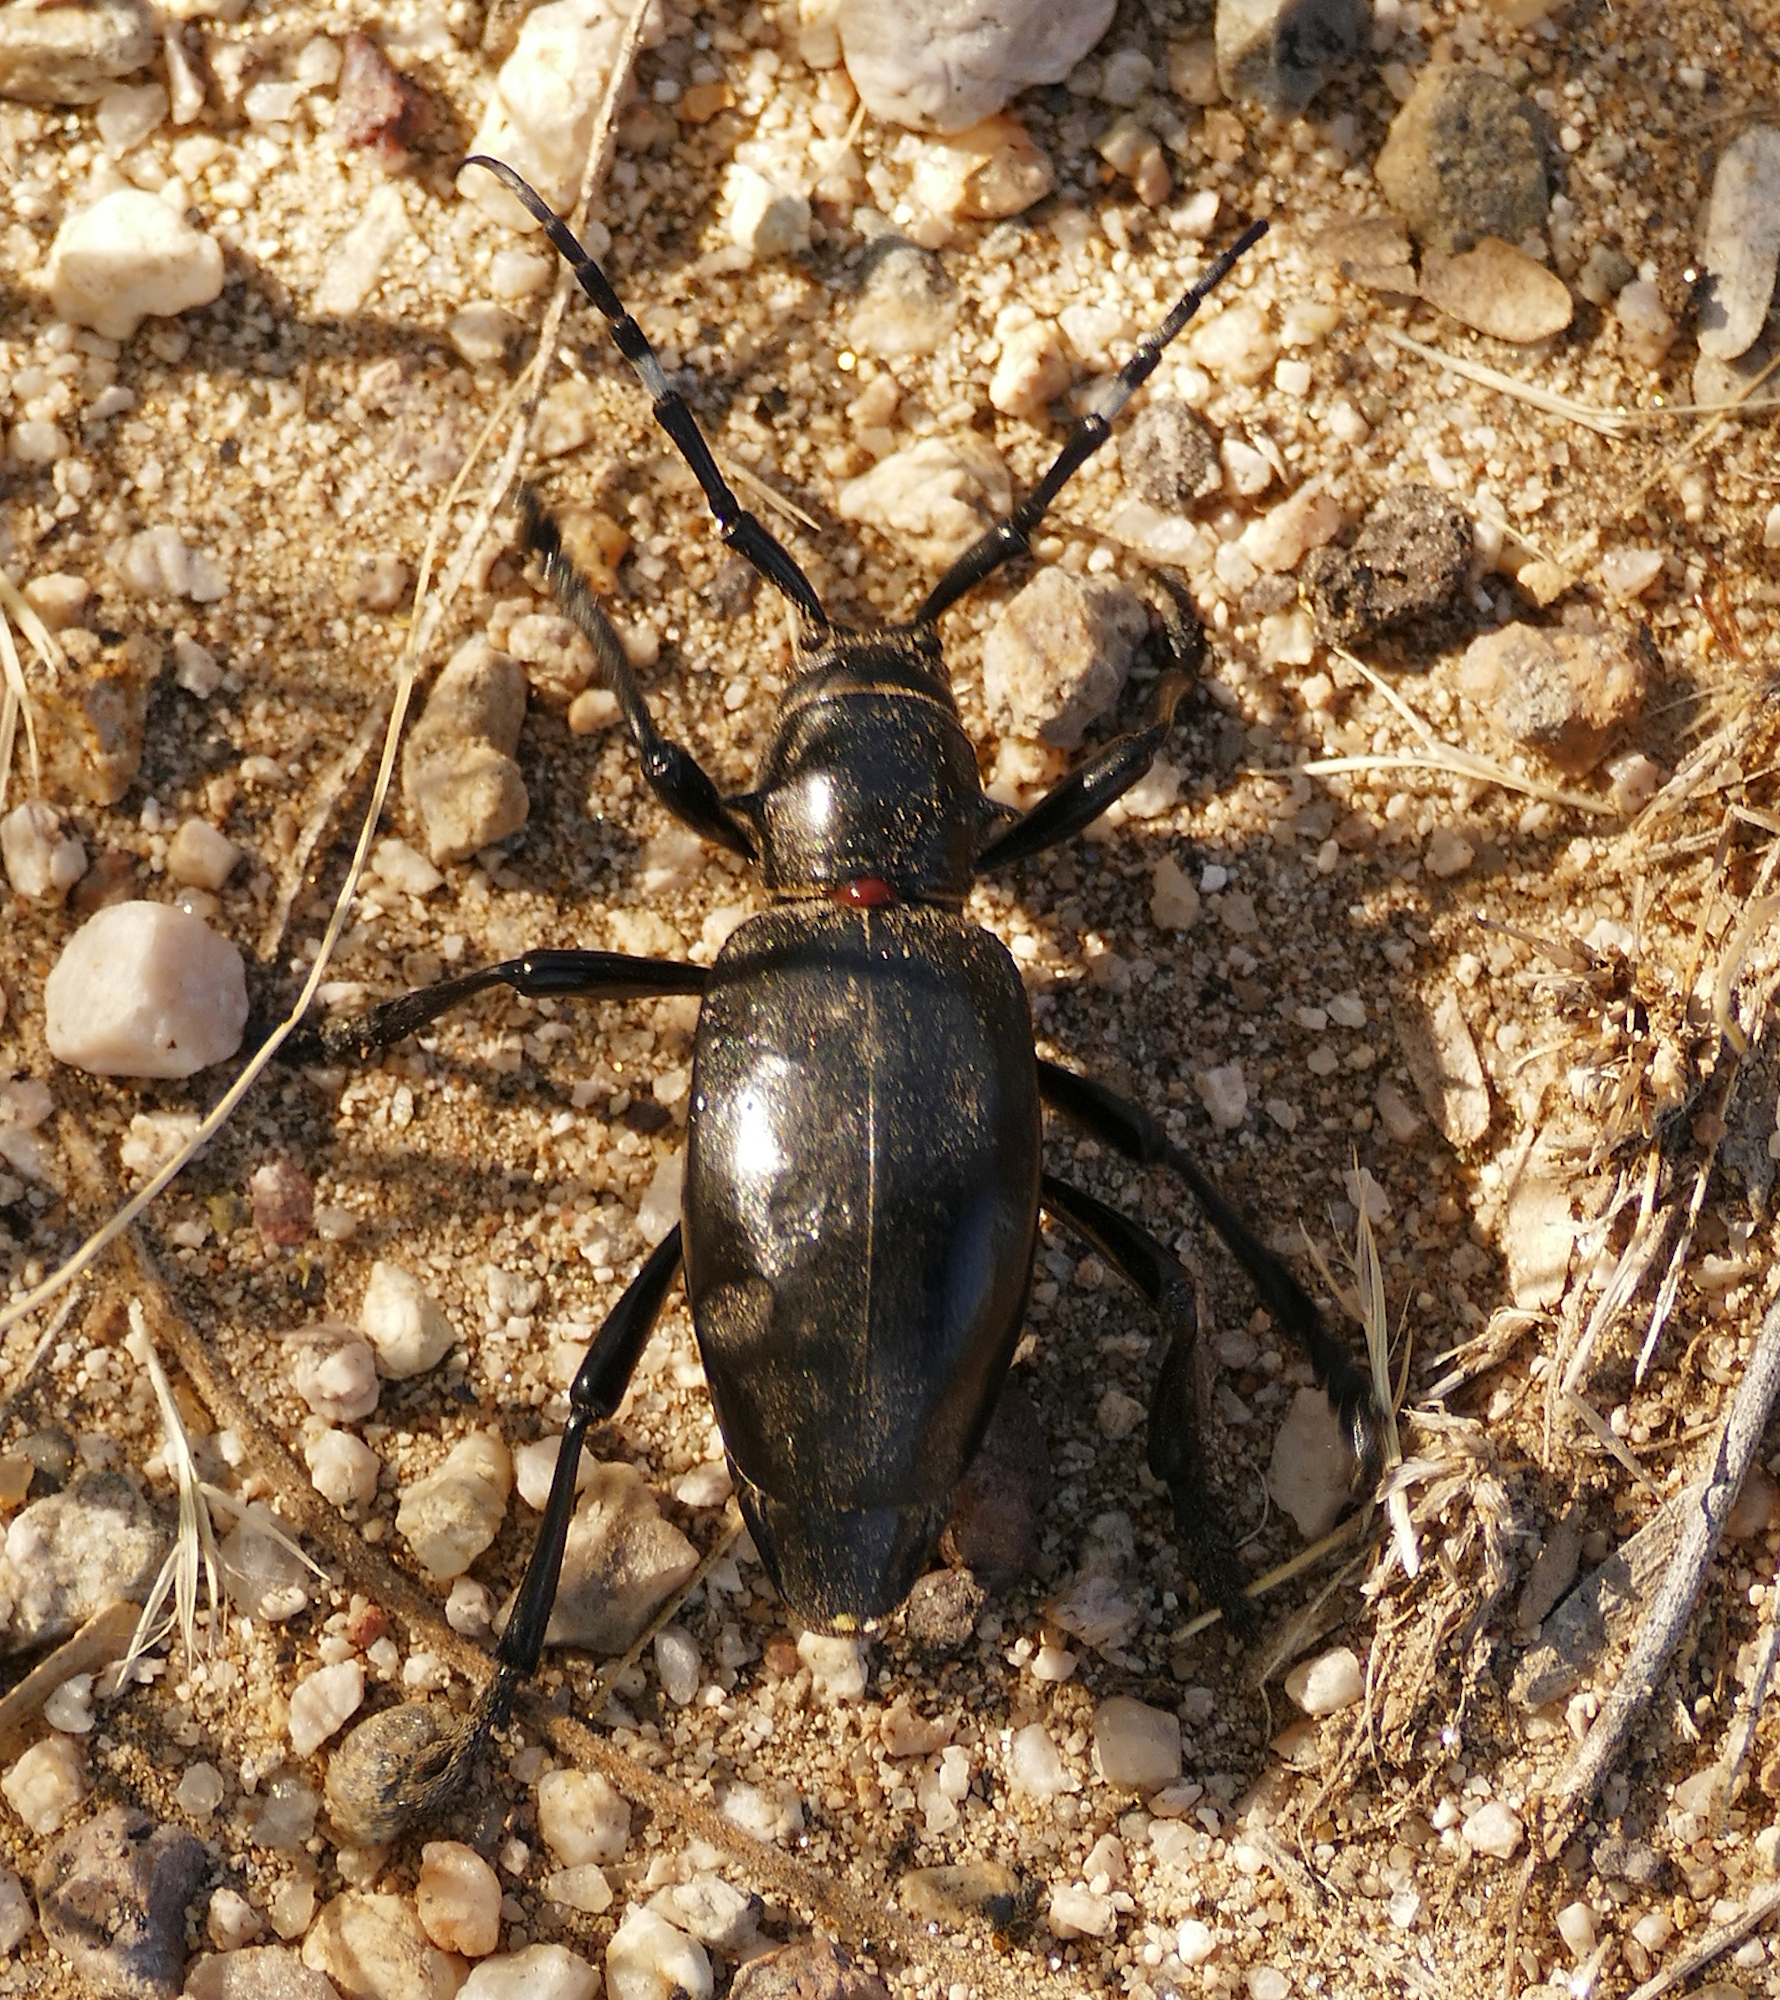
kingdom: Animalia
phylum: Arthropoda
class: Insecta
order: Coleoptera
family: Cerambycidae
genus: Moneilema
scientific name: Moneilema gigas
